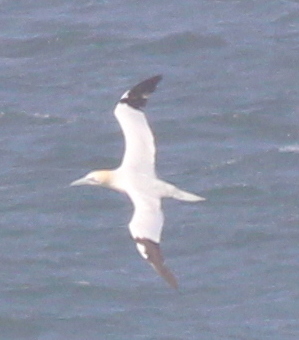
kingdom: Animalia
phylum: Chordata
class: Aves
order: Suliformes
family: Sulidae
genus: Morus
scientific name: Morus bassanus
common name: Northern gannet
